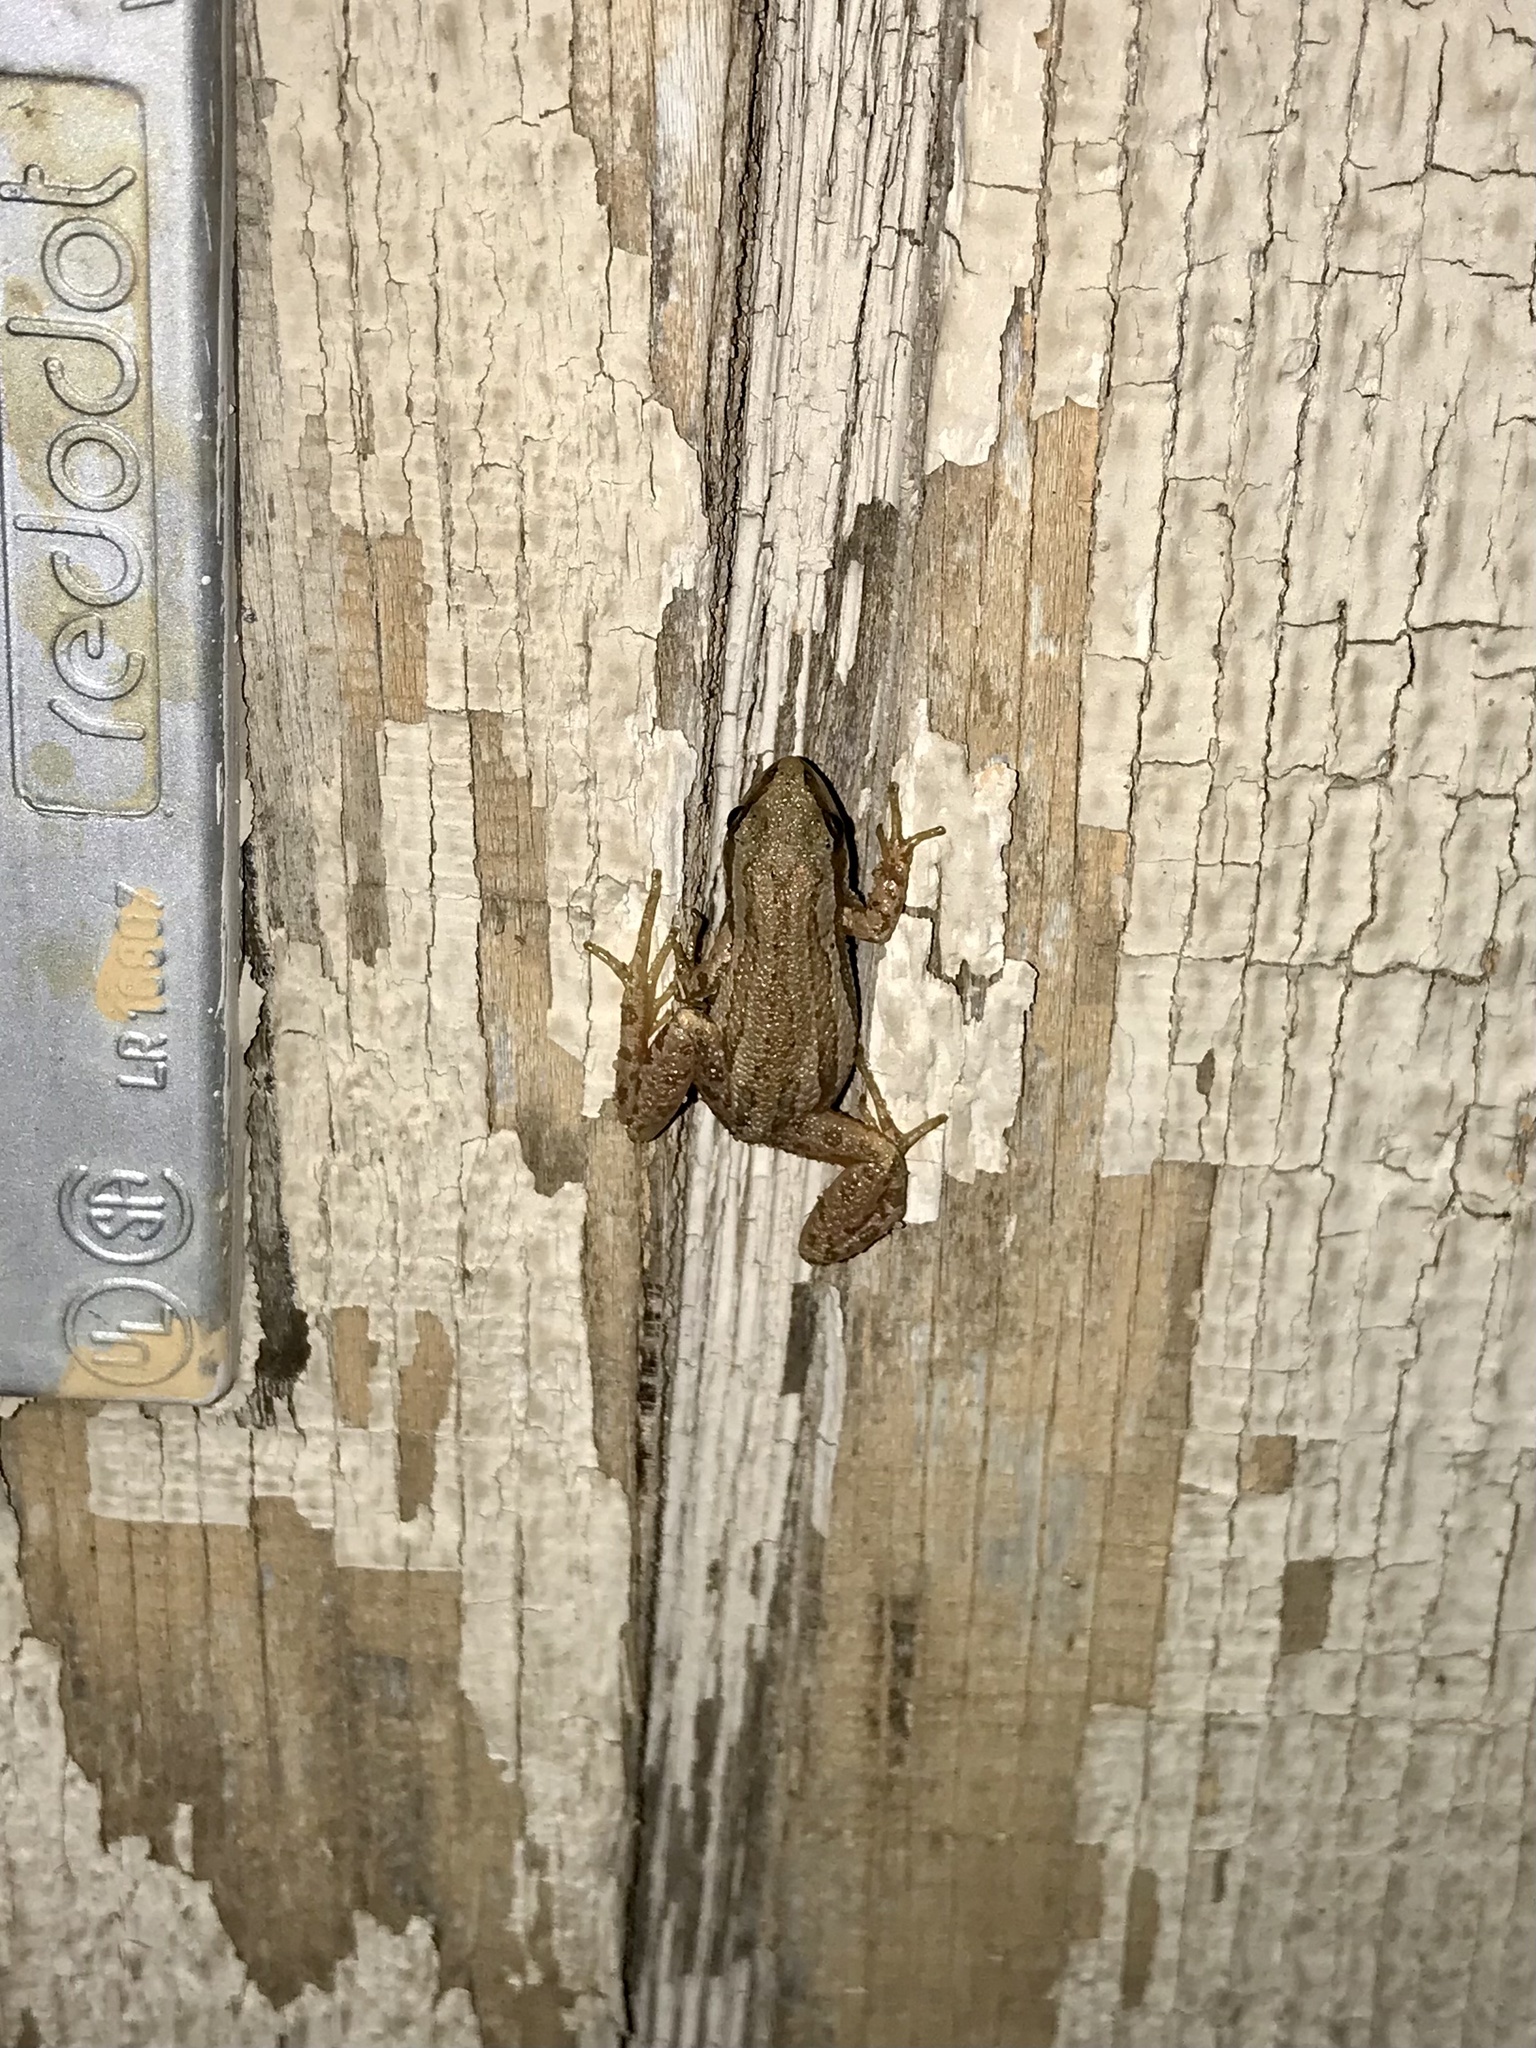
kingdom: Animalia
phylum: Chordata
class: Amphibia
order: Anura
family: Hylidae
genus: Pseudacris
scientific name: Pseudacris maculata
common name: Boreal chorus frog
